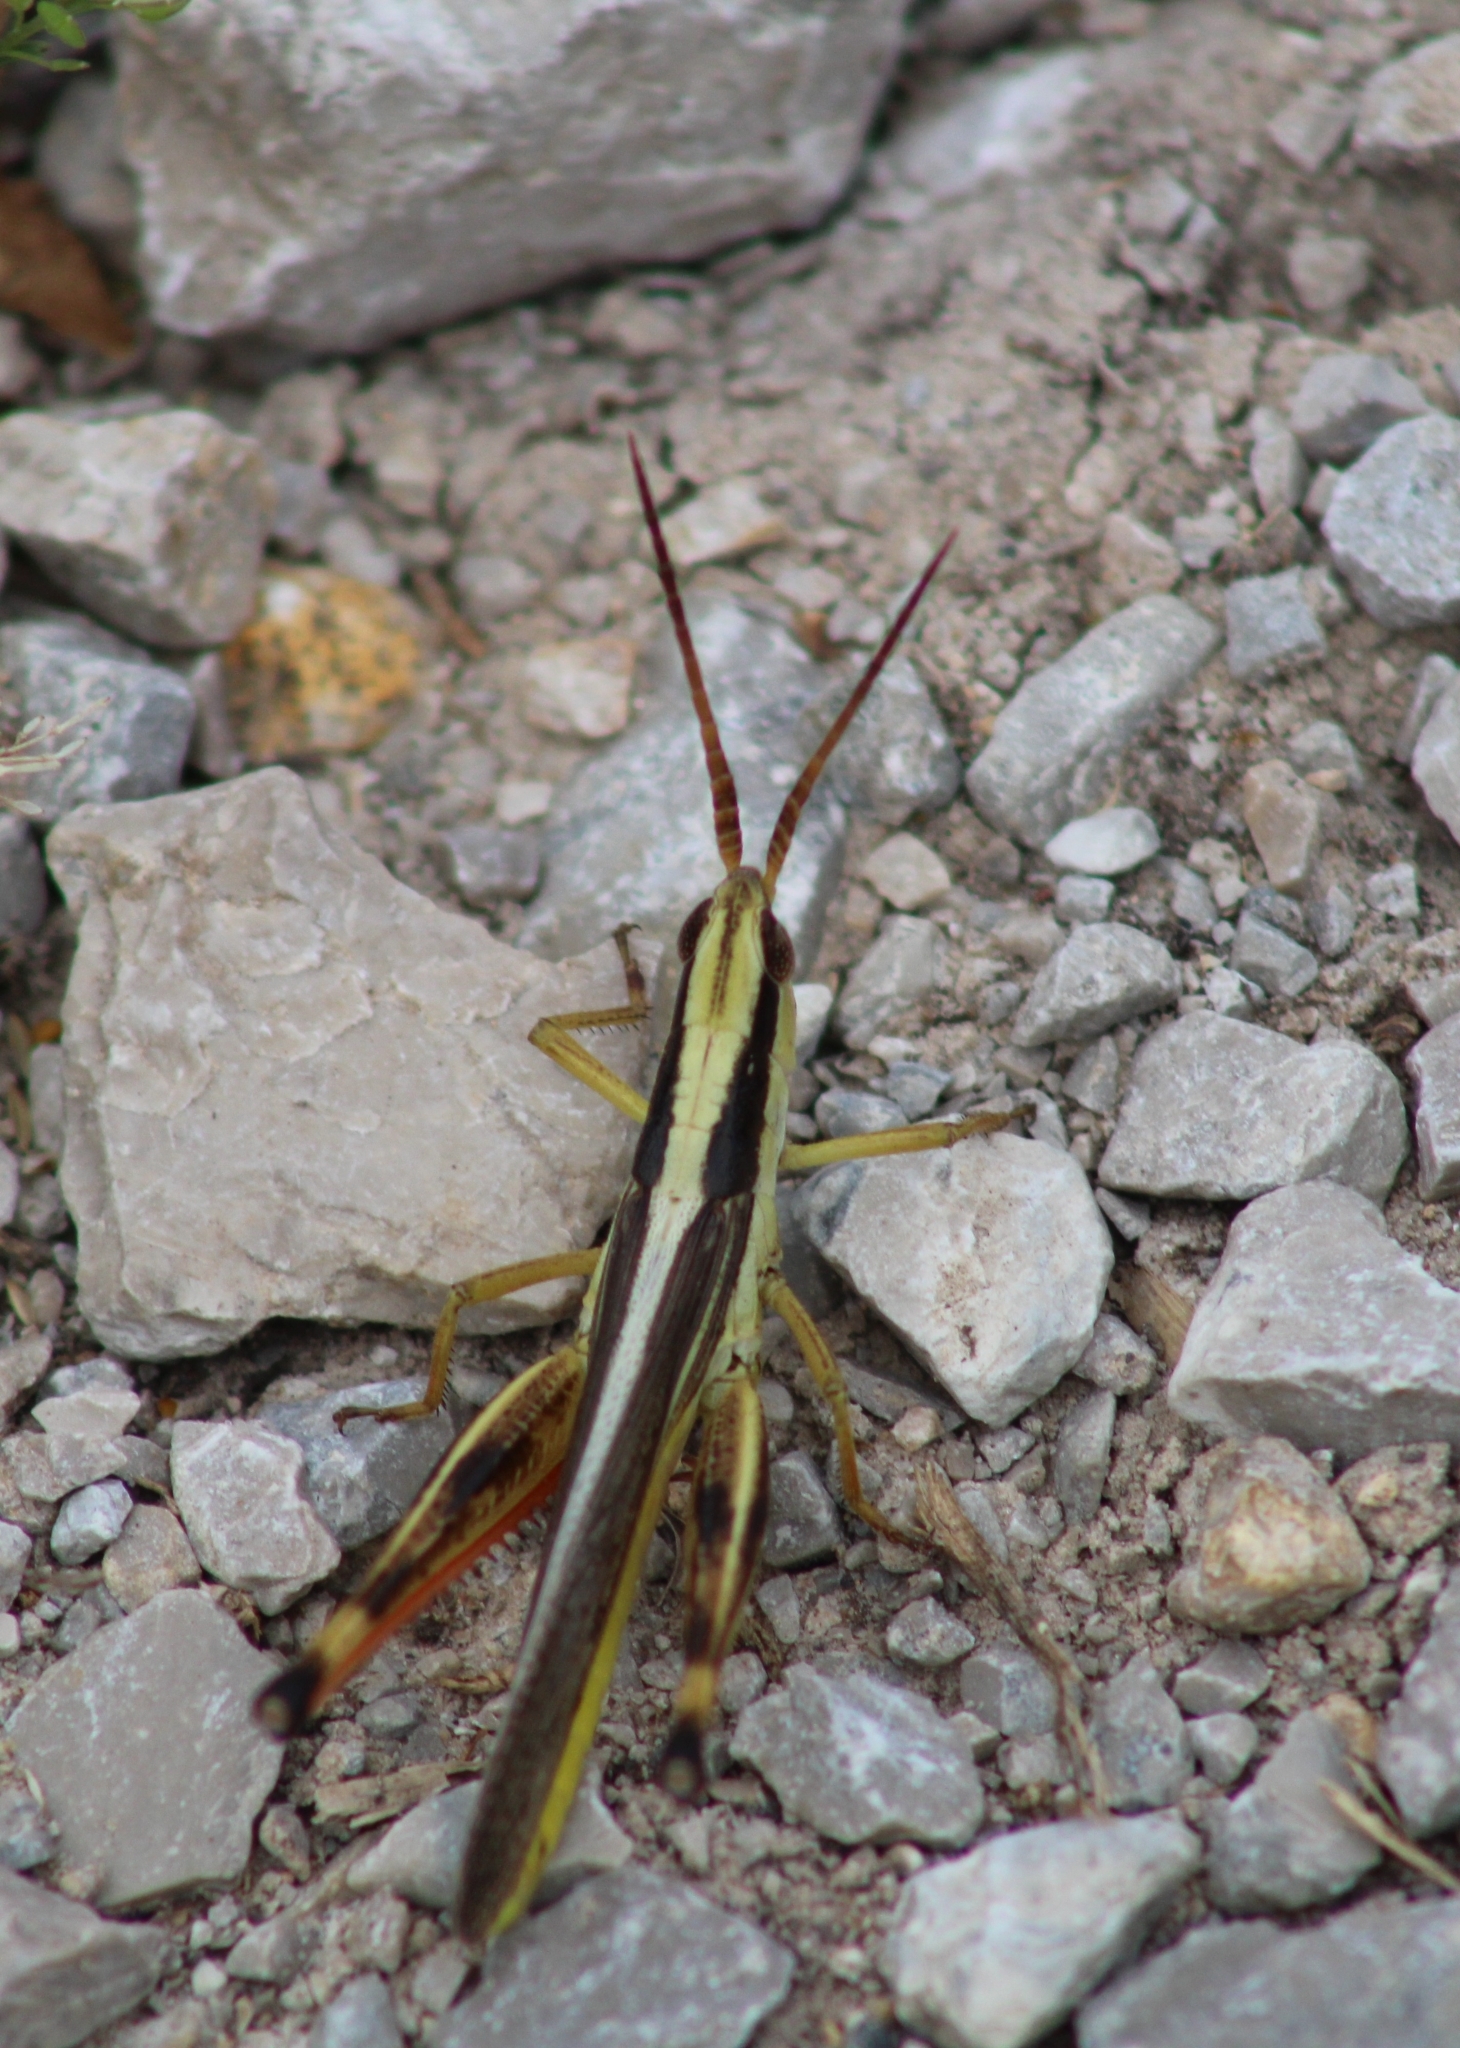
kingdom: Animalia
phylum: Arthropoda
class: Insecta
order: Orthoptera
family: Acrididae
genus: Mermiria
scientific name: Mermiria bivittata
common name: Two-striped mermiria grasshopper
